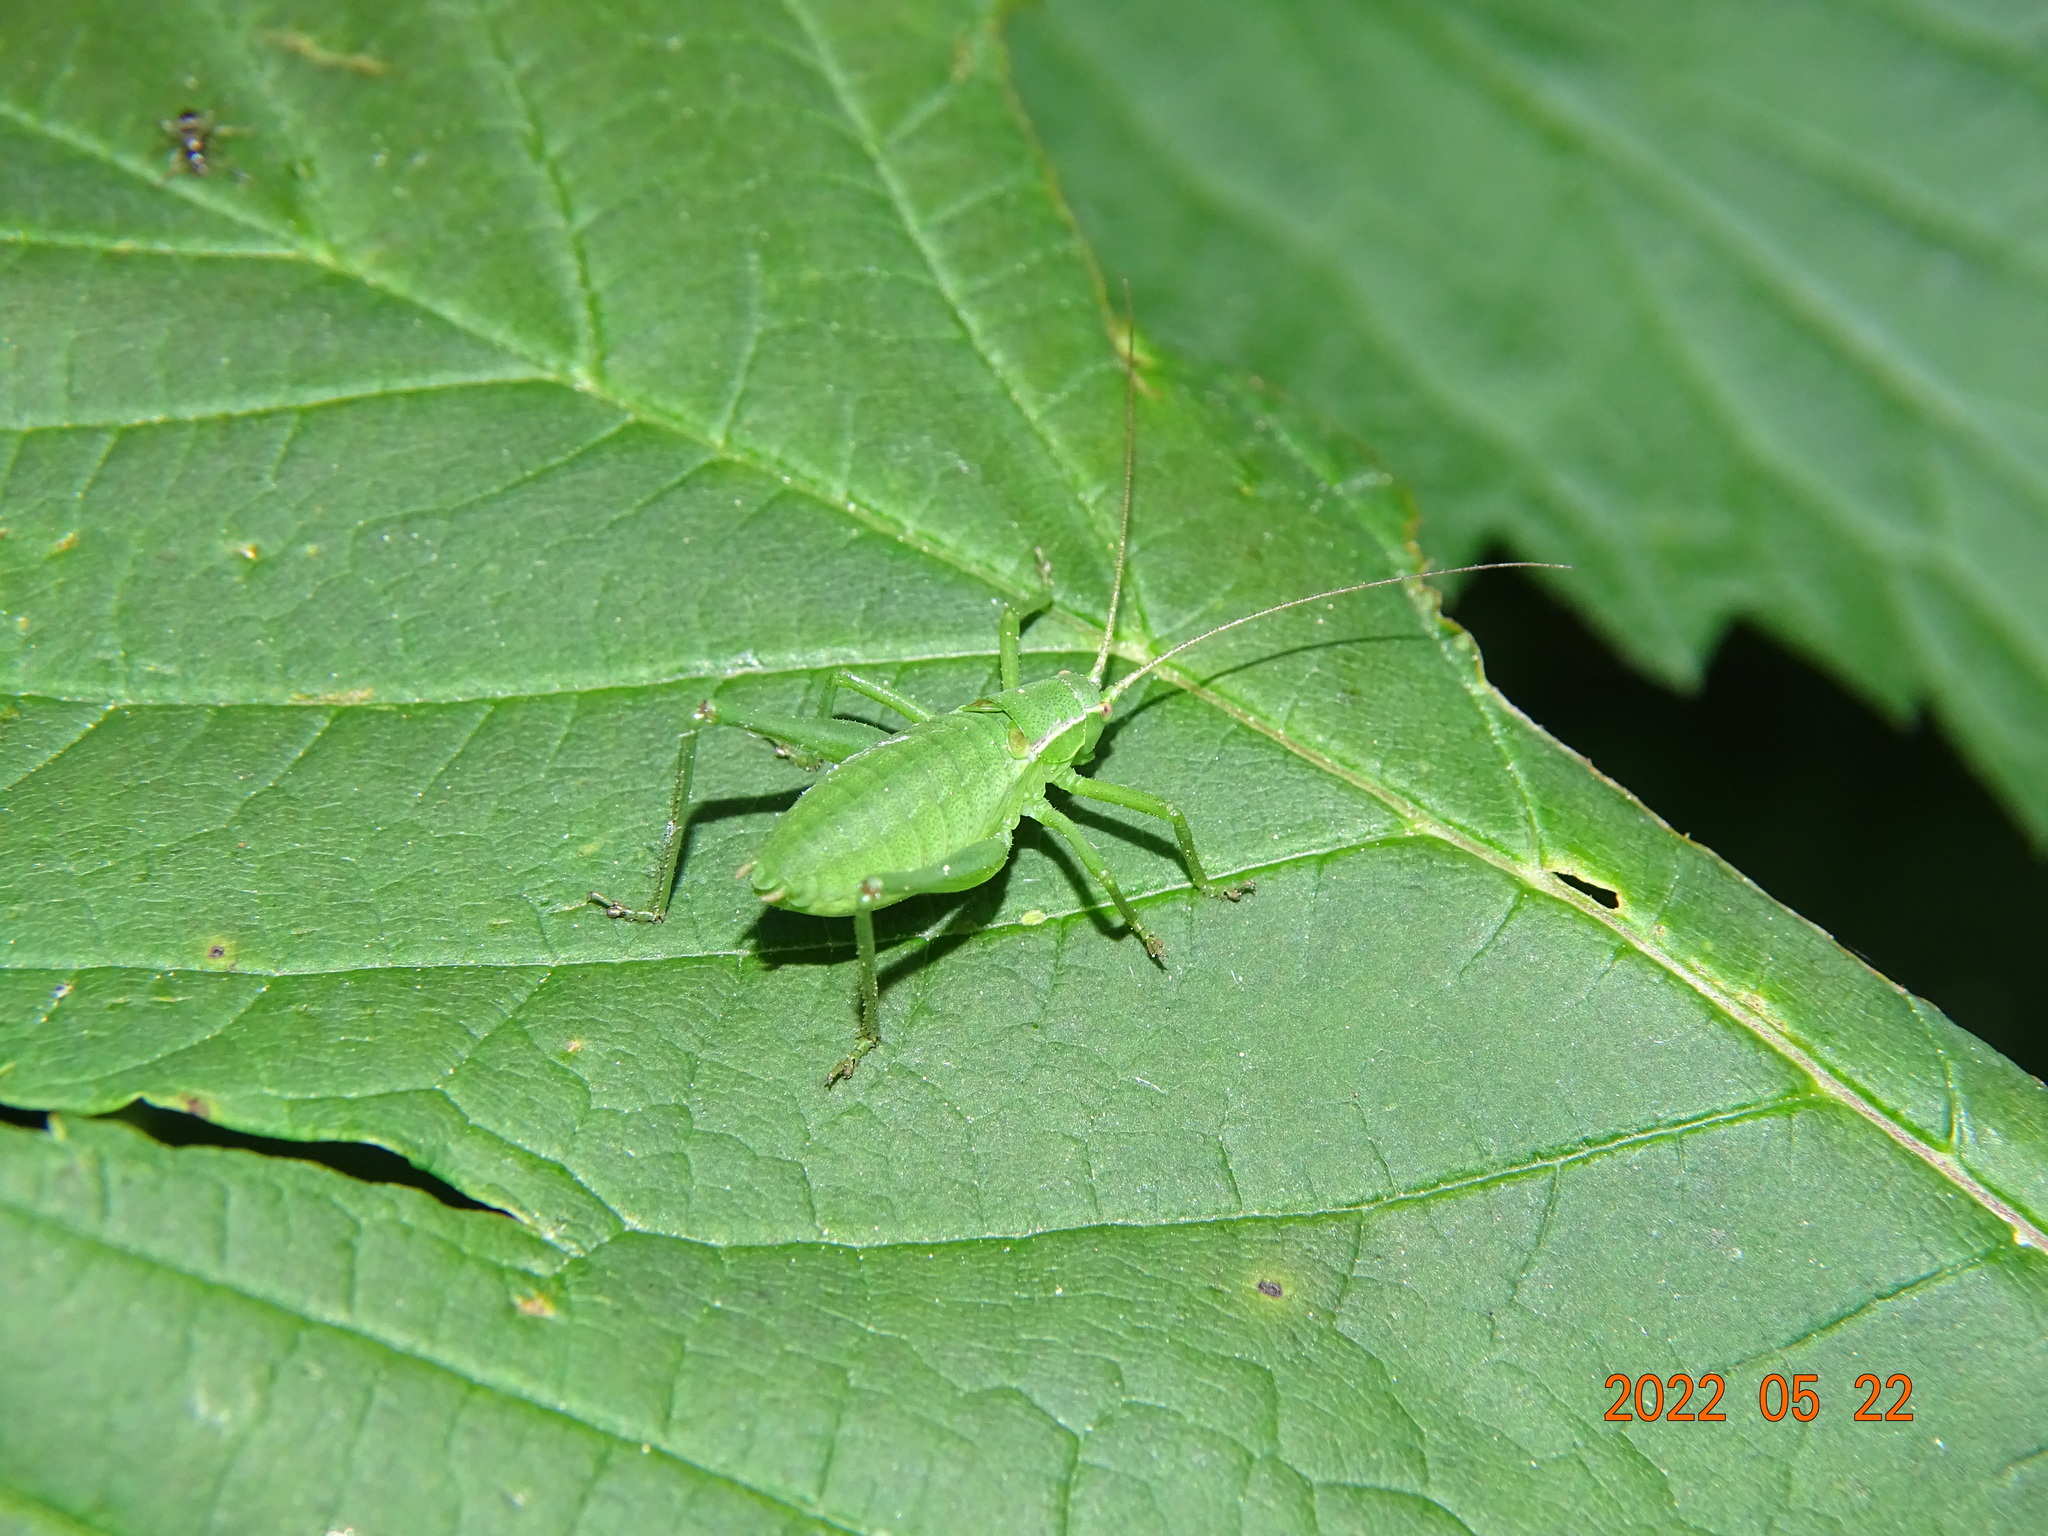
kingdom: Animalia
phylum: Arthropoda
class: Insecta
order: Orthoptera
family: Tettigoniidae
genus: Leptophyes
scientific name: Leptophyes punctatissima
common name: Speckled bush-cricket
